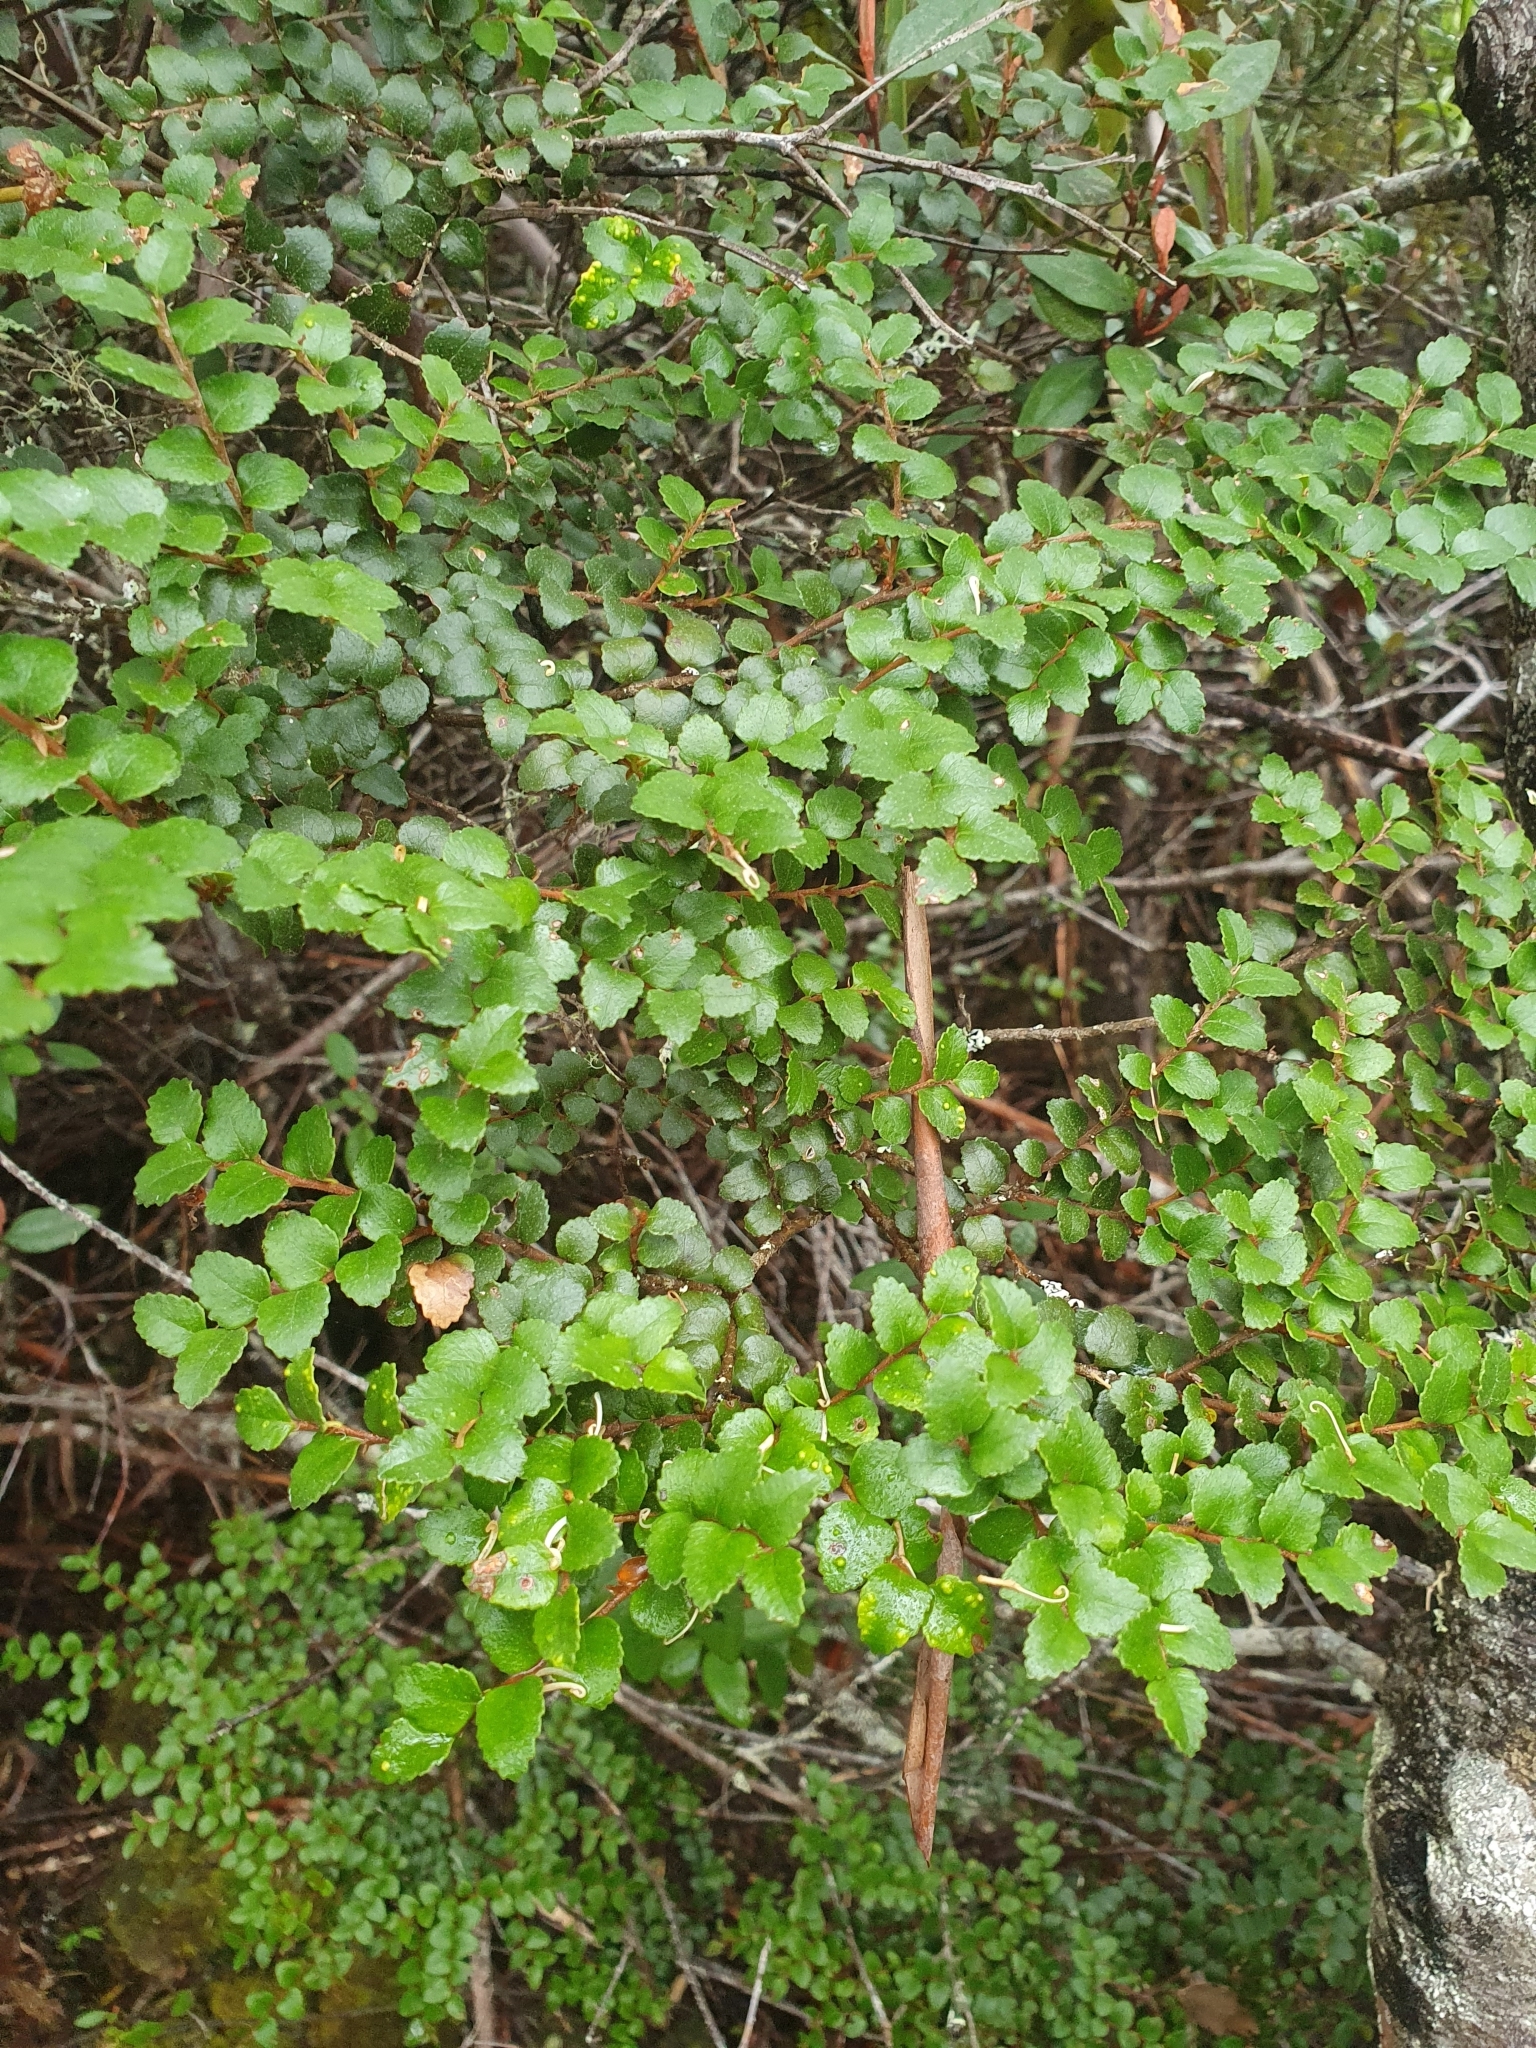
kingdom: Plantae
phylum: Tracheophyta
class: Magnoliopsida
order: Fagales
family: Nothofagaceae
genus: Nothofagus
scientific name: Nothofagus cunninghamii
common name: Myrtle beech
